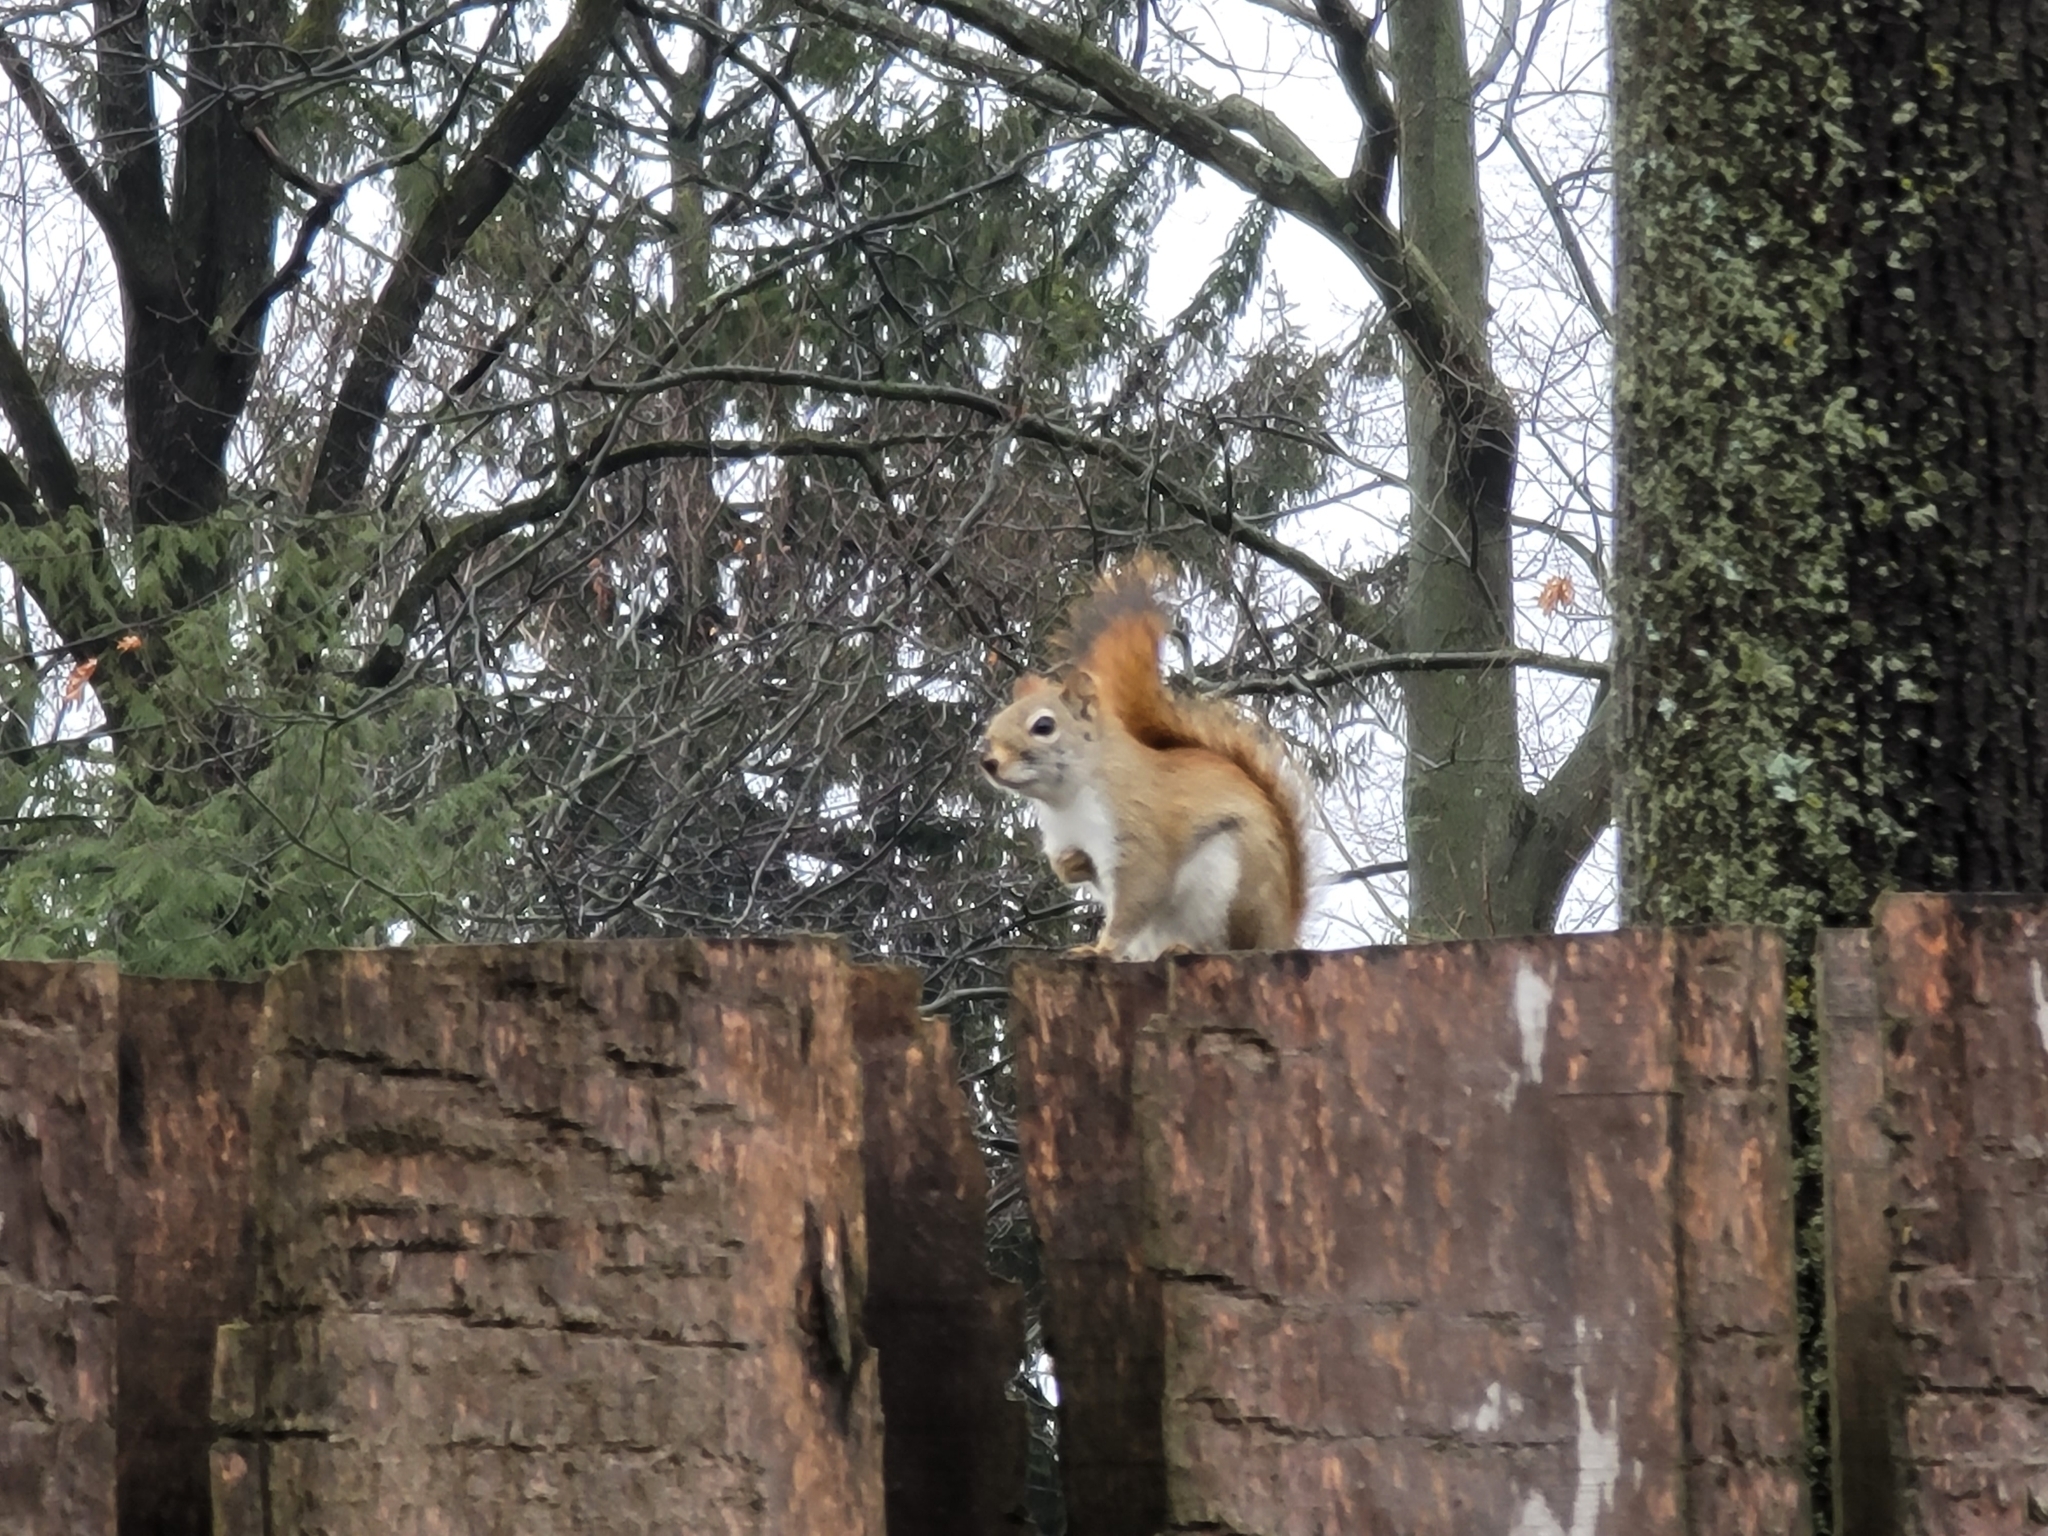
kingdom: Animalia
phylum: Chordata
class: Mammalia
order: Rodentia
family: Sciuridae
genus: Tamiasciurus
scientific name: Tamiasciurus hudsonicus
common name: Red squirrel
